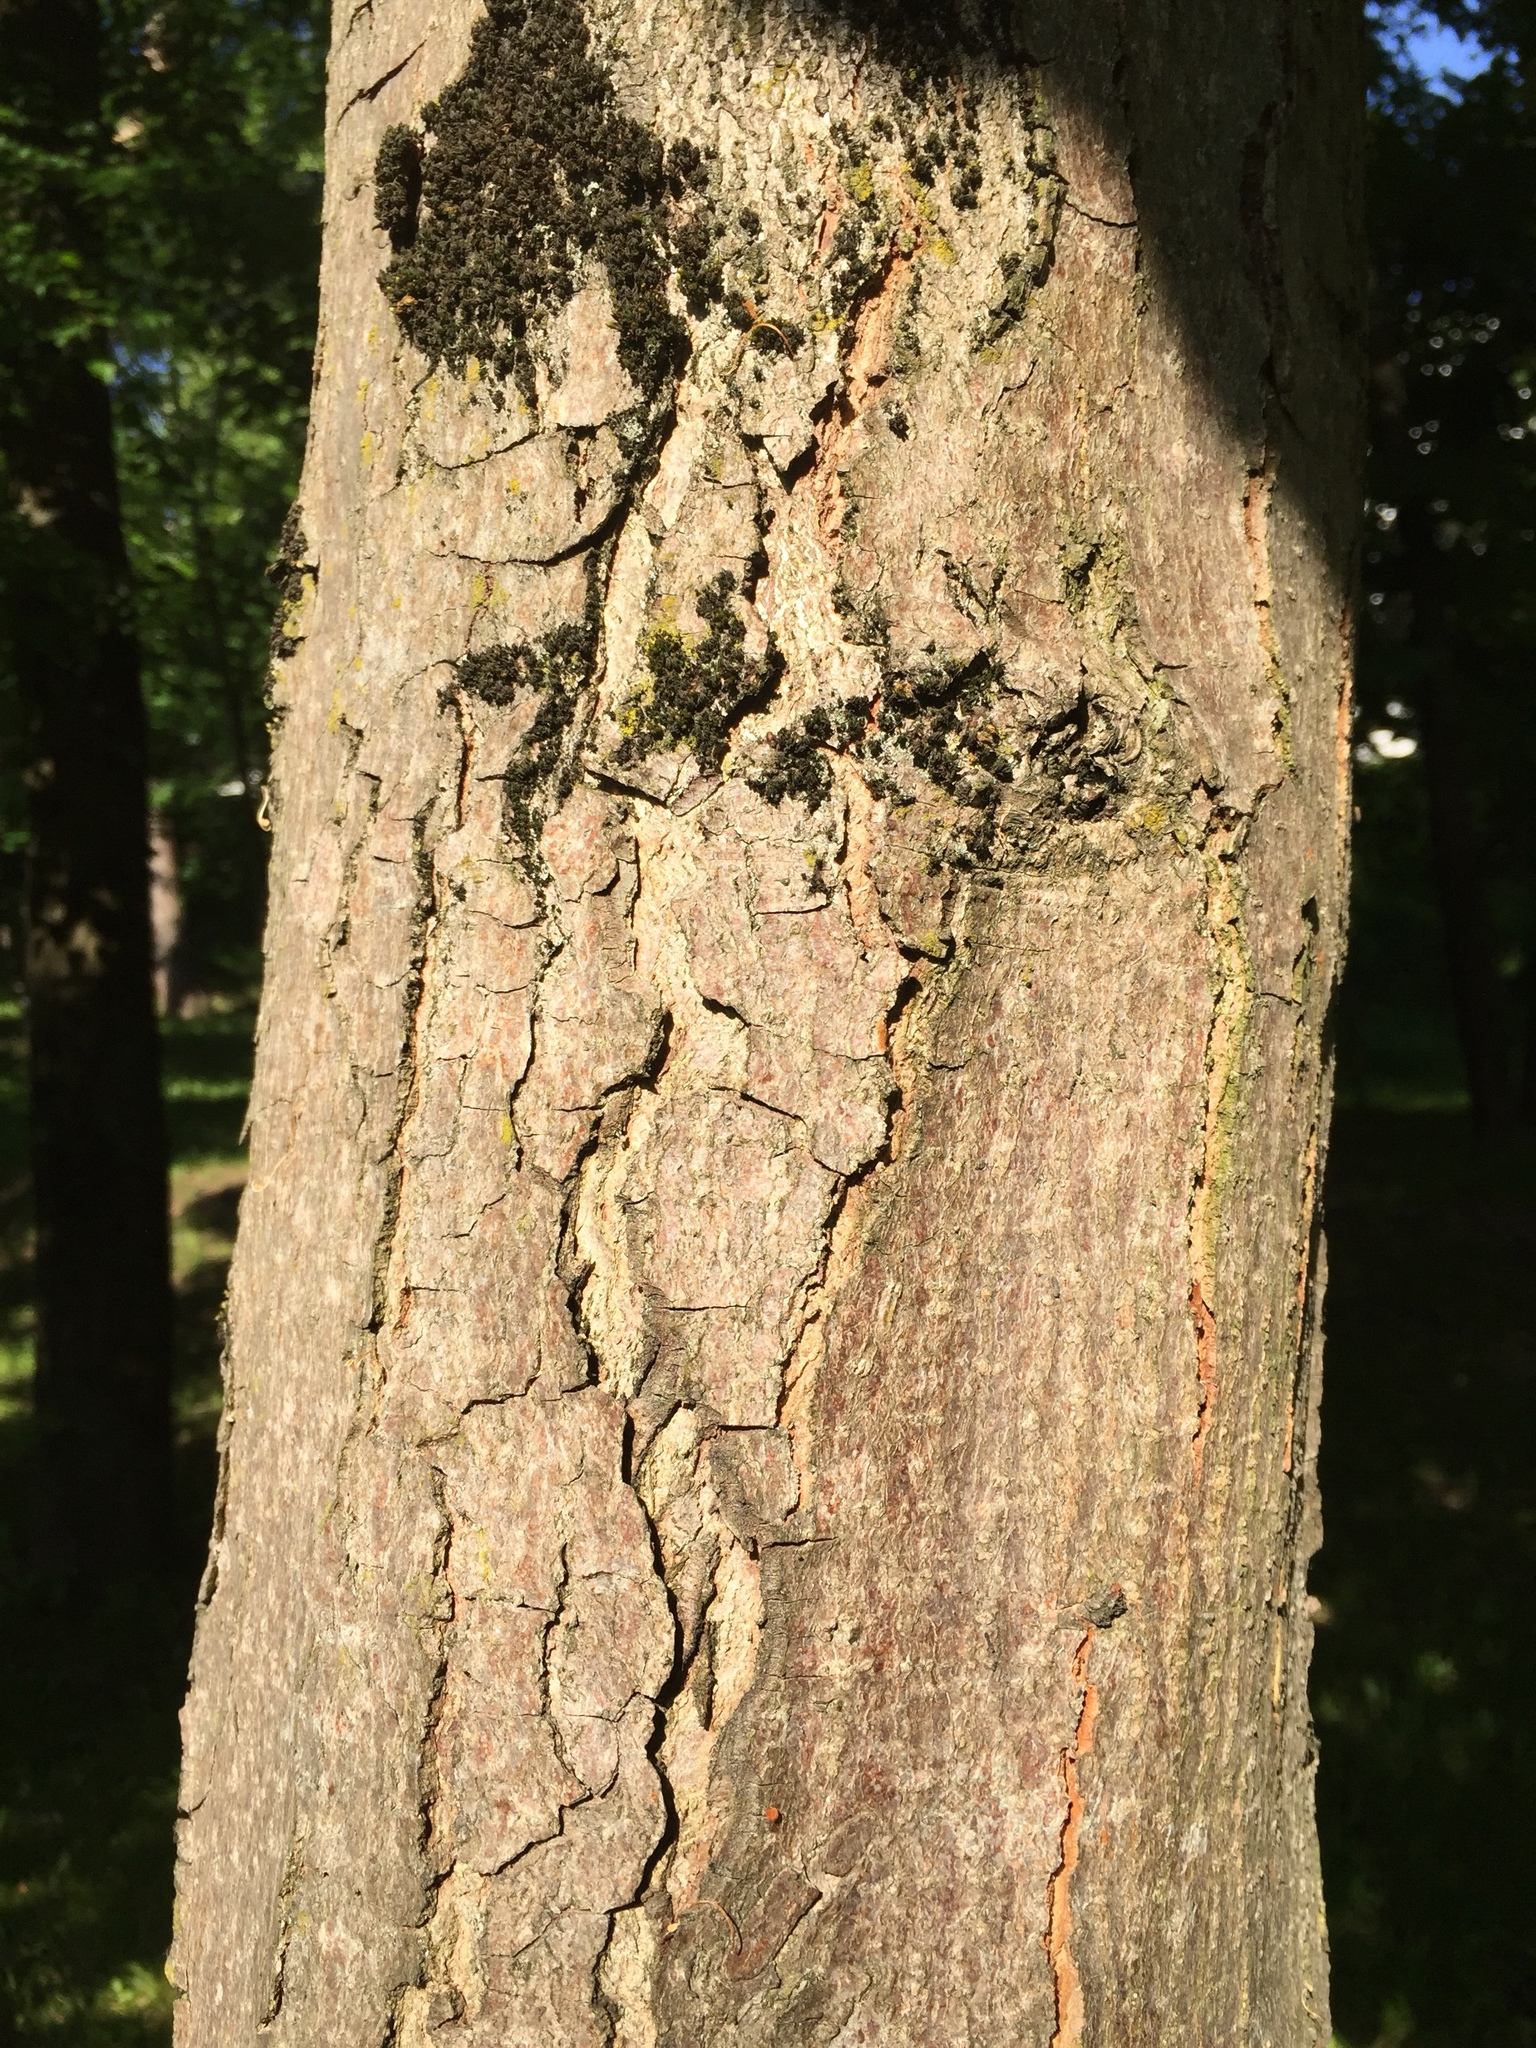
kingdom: Plantae
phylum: Tracheophyta
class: Magnoliopsida
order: Sapindales
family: Sapindaceae
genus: Aesculus
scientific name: Aesculus hippocastanum
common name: Horse-chestnut
